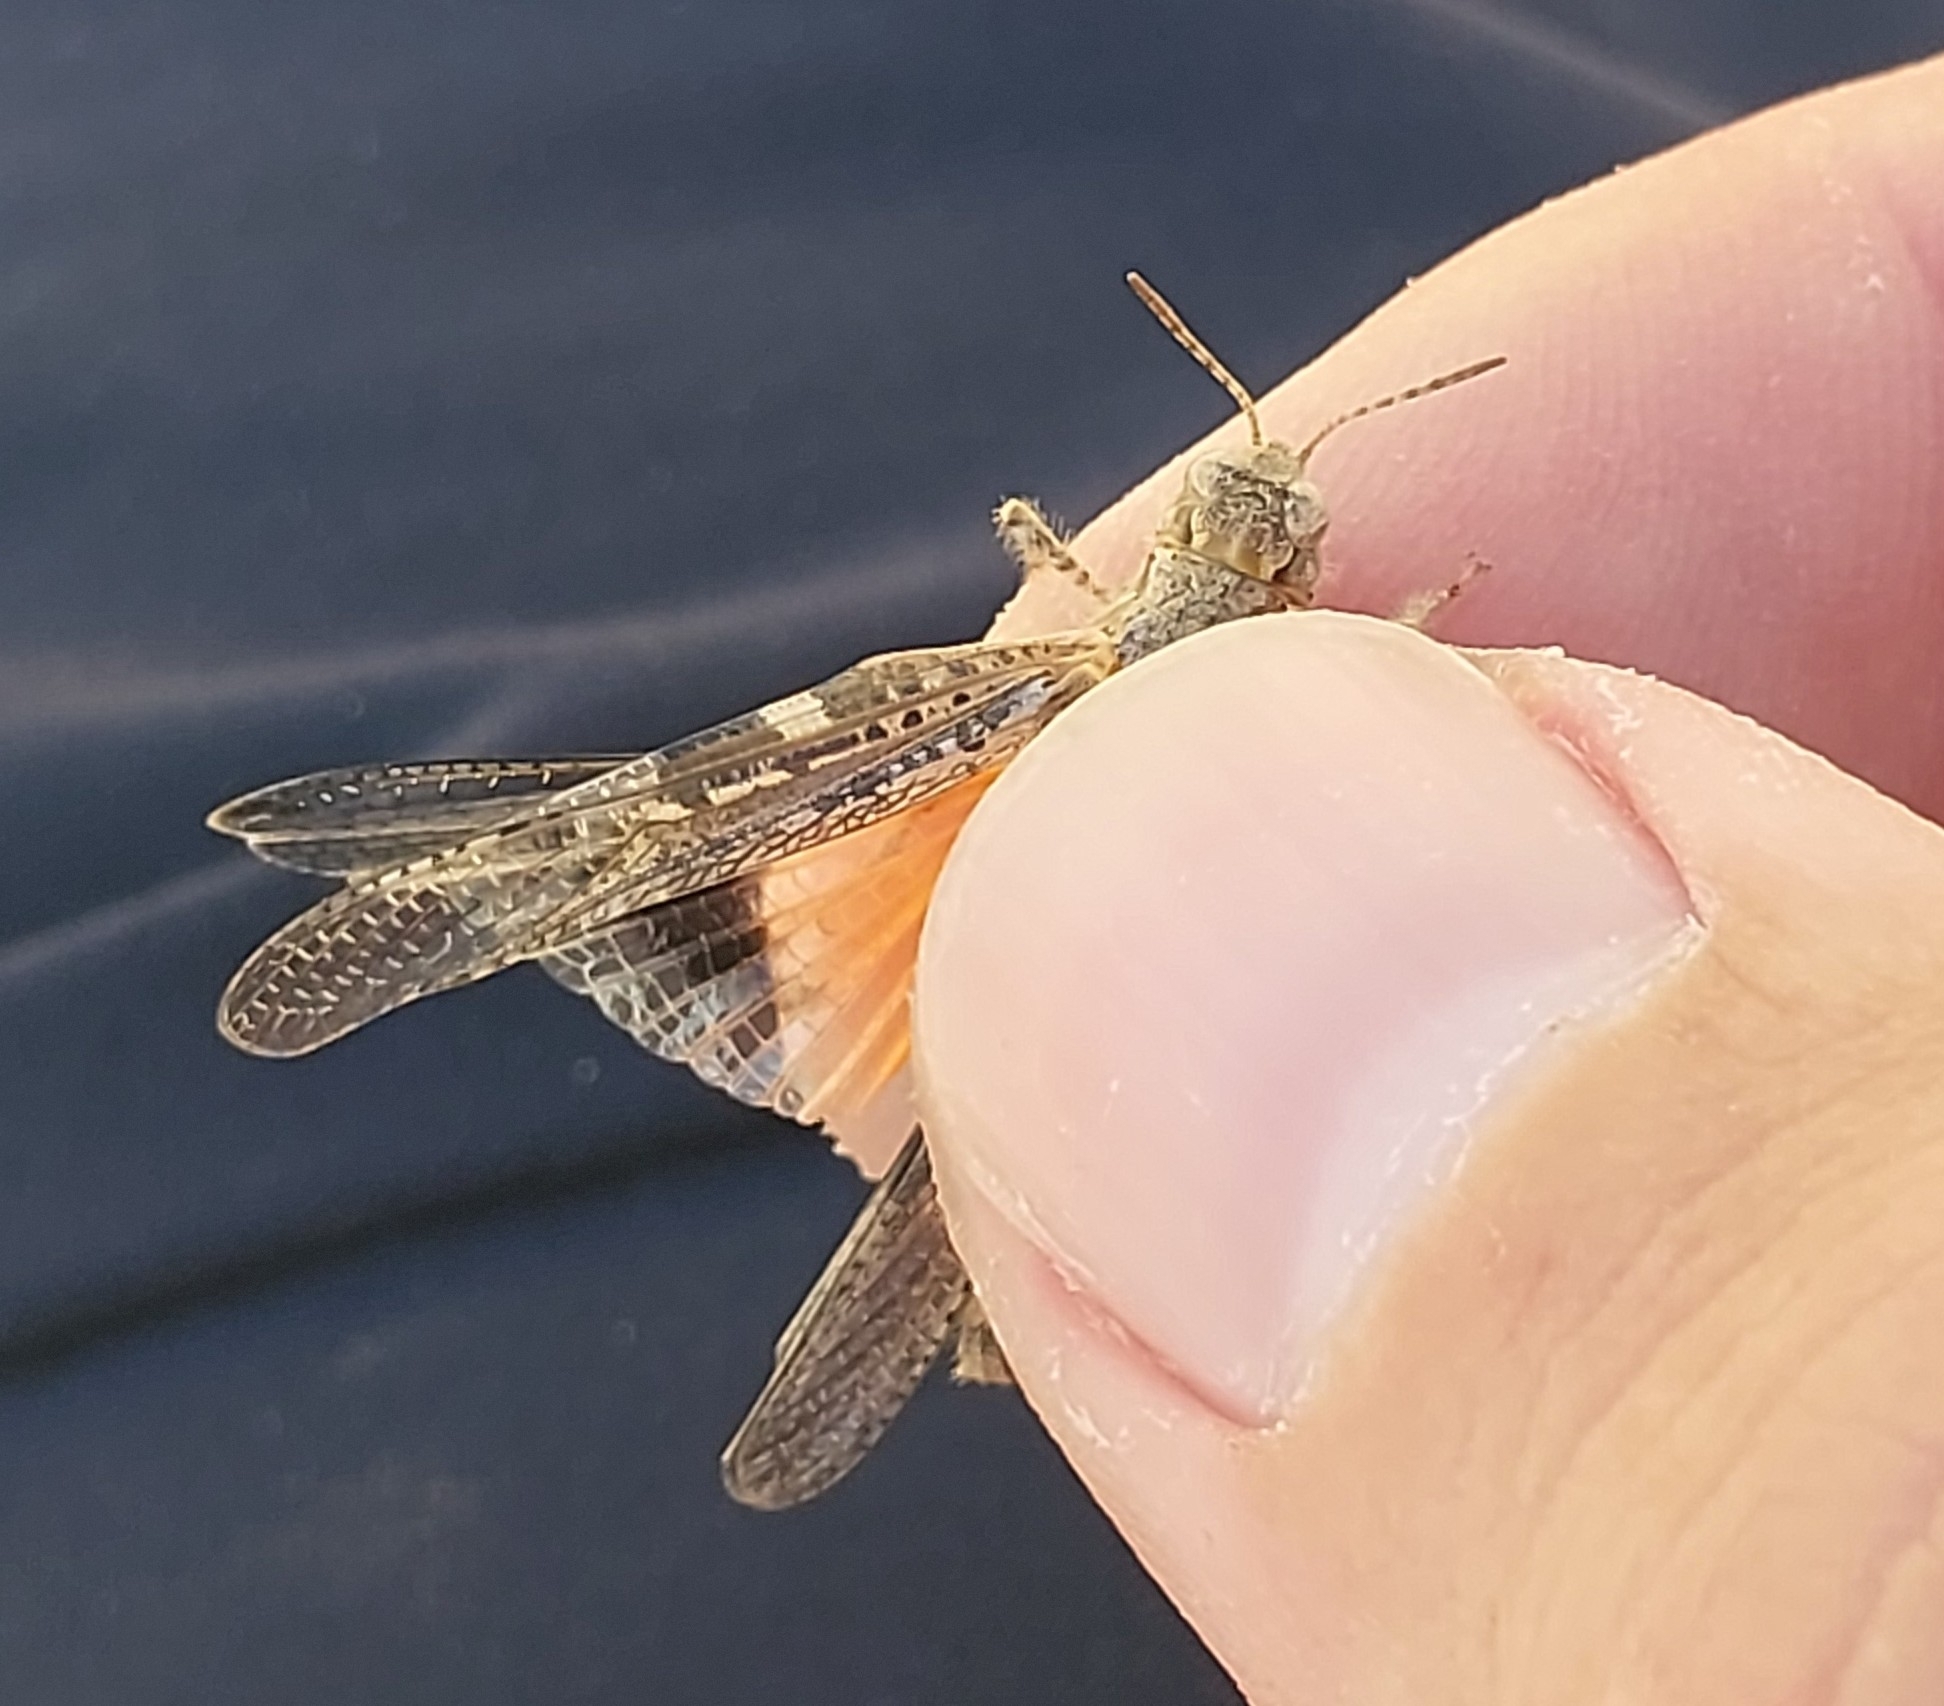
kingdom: Animalia
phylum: Arthropoda
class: Insecta
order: Orthoptera
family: Acrididae
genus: Acrotylus
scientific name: Acrotylus insubricus
